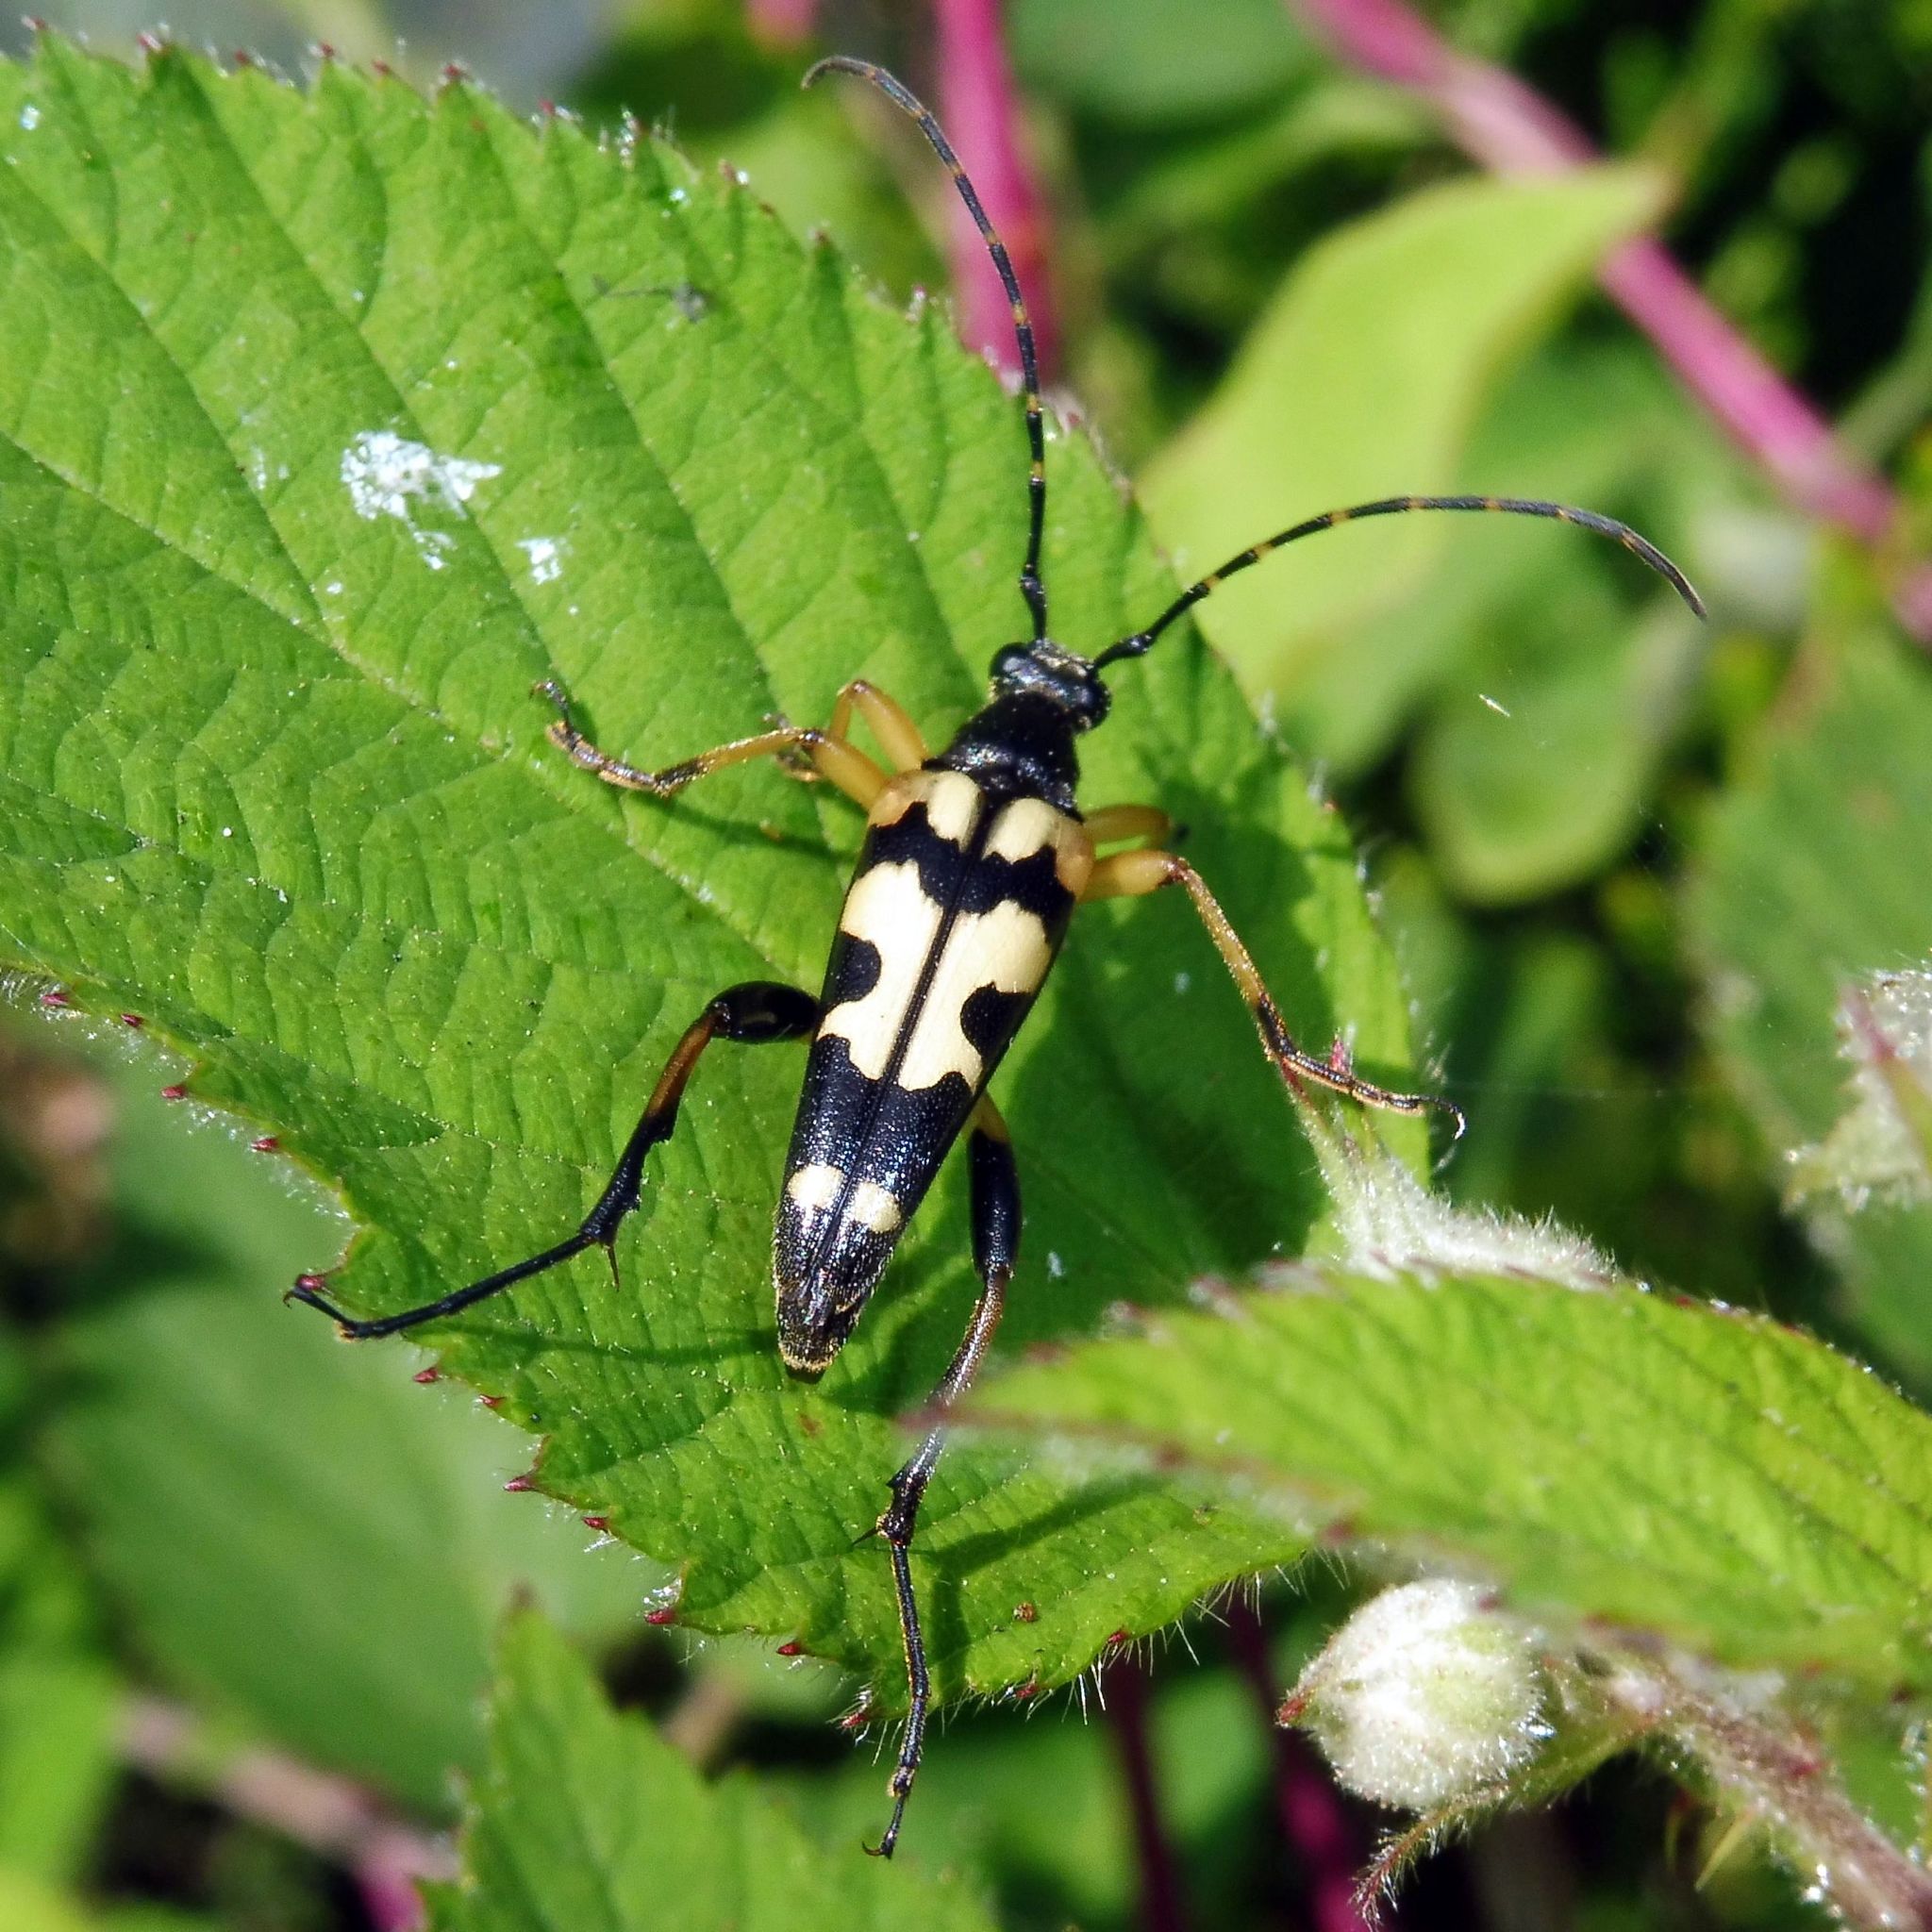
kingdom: Animalia
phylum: Arthropoda
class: Insecta
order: Coleoptera
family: Cerambycidae
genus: Rutpela
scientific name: Rutpela maculata
